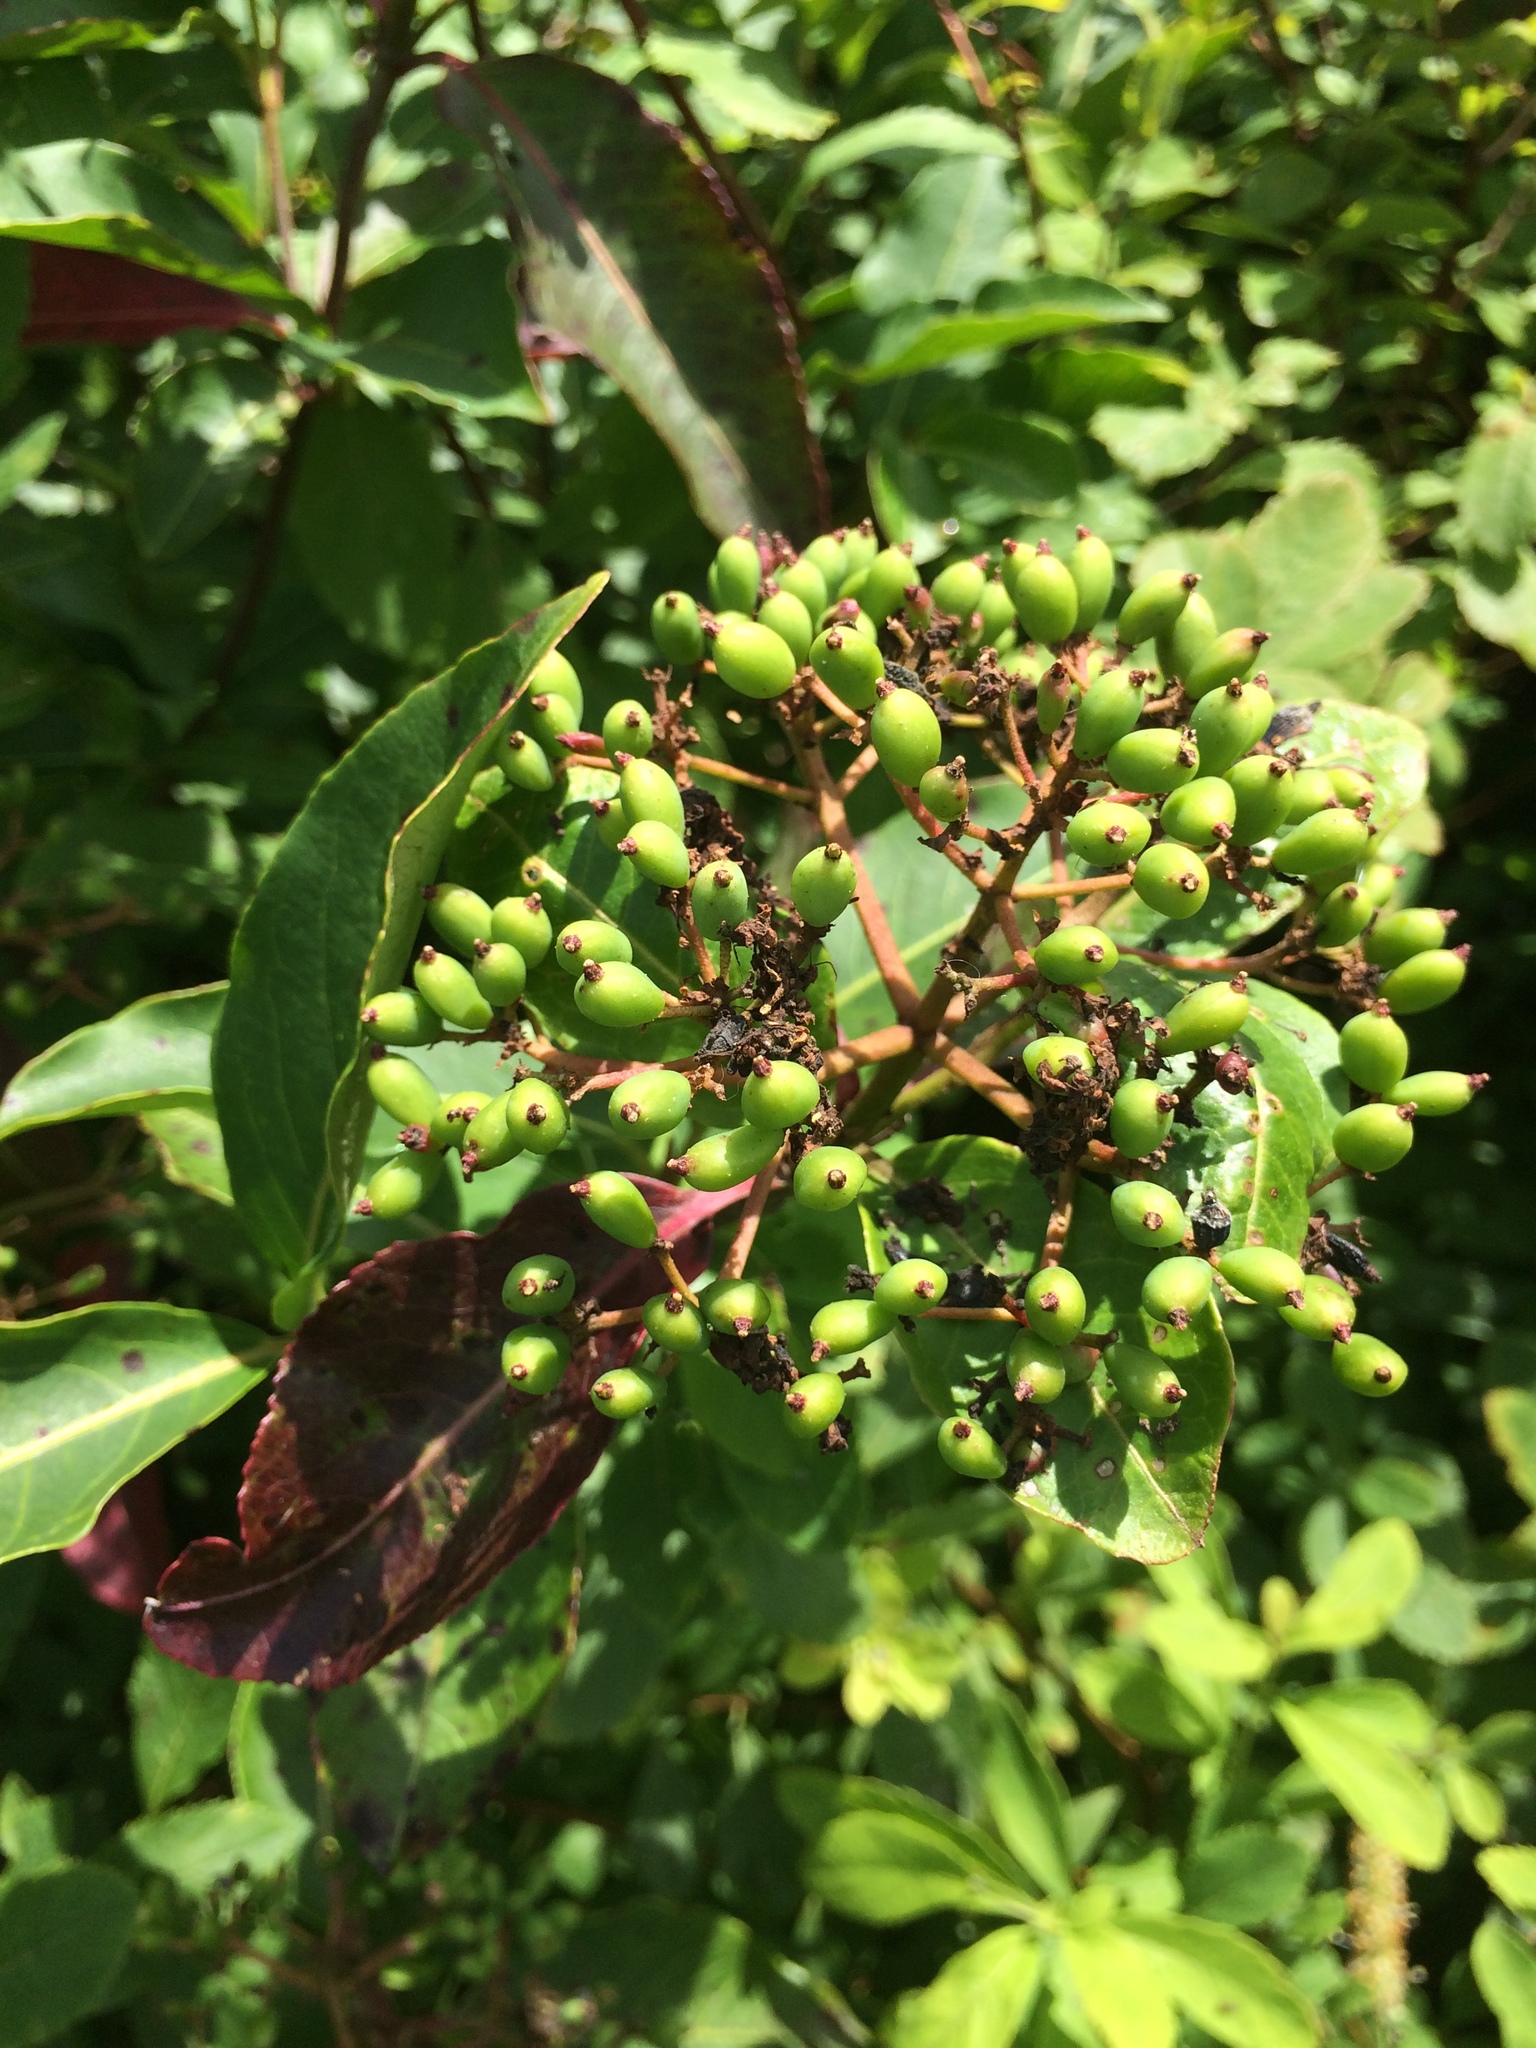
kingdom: Plantae
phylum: Tracheophyta
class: Magnoliopsida
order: Dipsacales
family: Viburnaceae
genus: Viburnum
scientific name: Viburnum cassinoides
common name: Swamp haw
